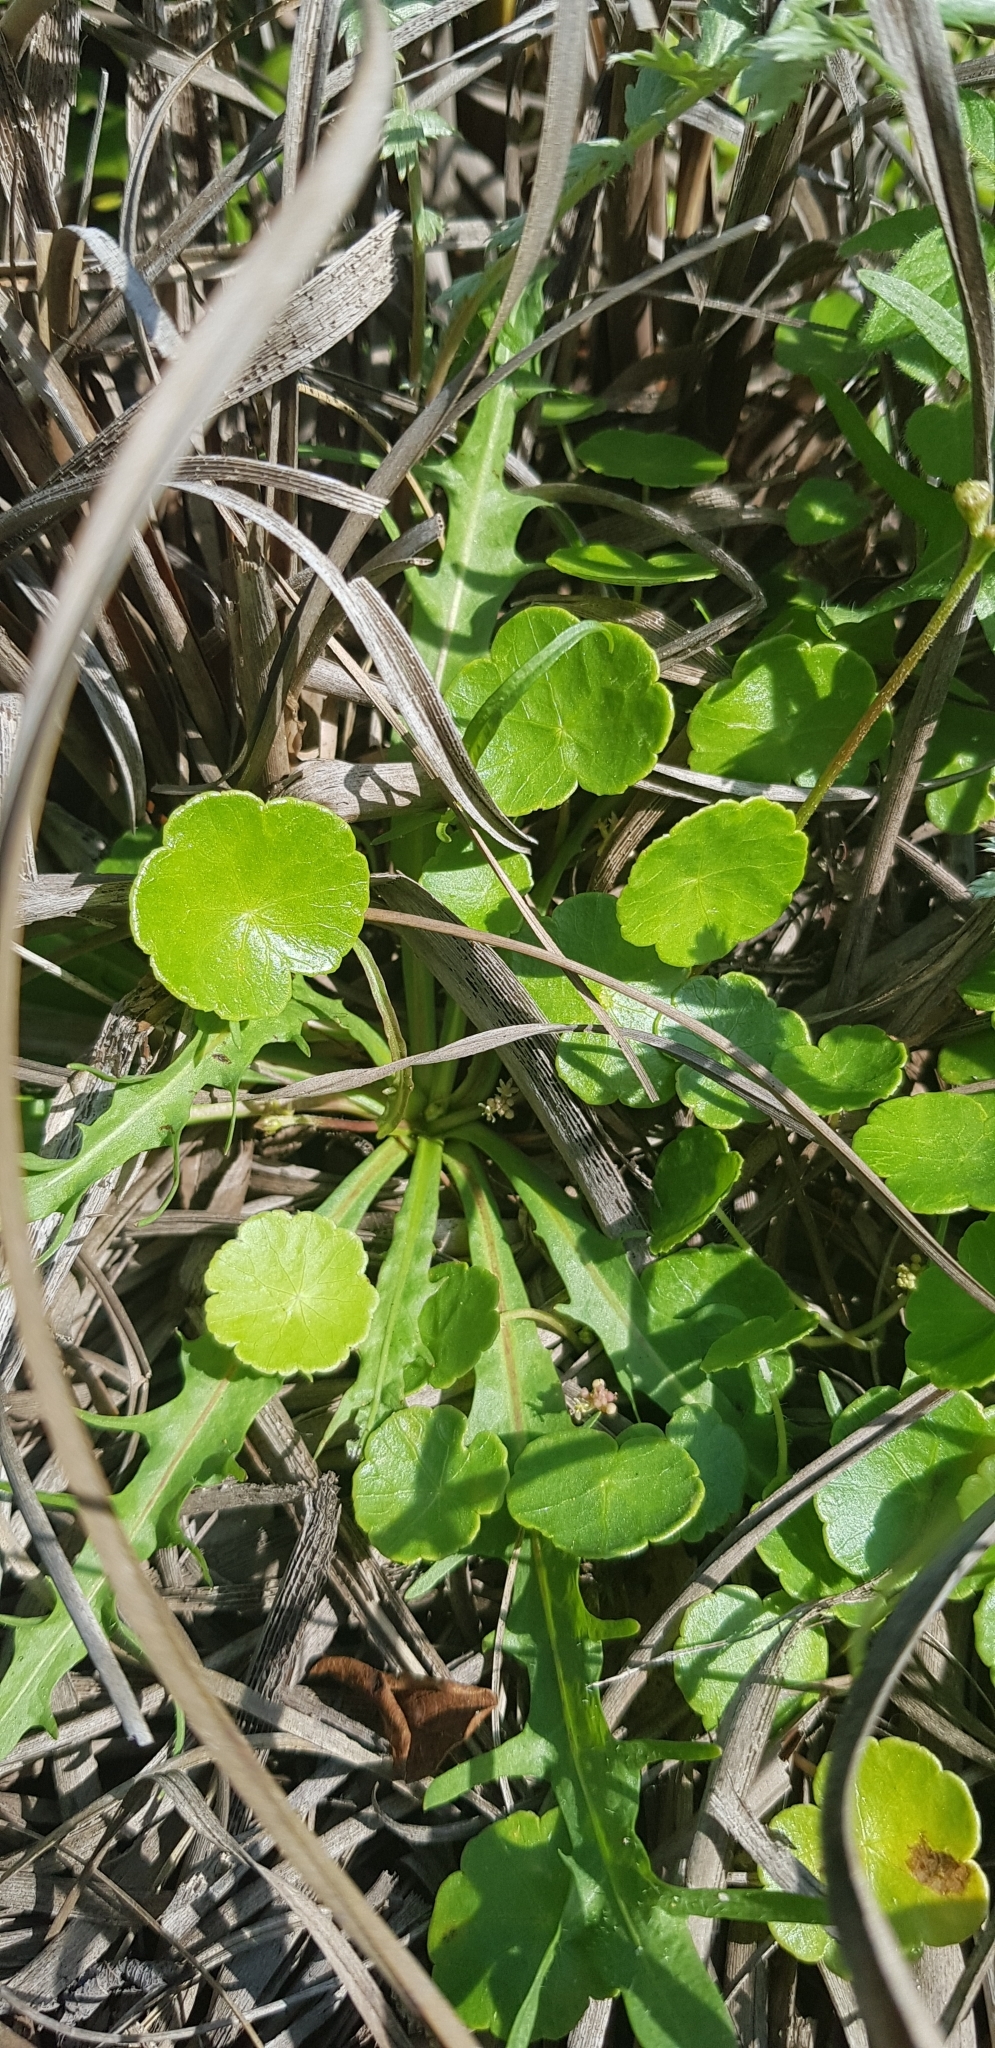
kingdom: Plantae
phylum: Tracheophyta
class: Magnoliopsida
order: Apiales
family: Araliaceae
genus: Hydrocotyle
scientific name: Hydrocotyle vulgaris
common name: Marsh pennywort
